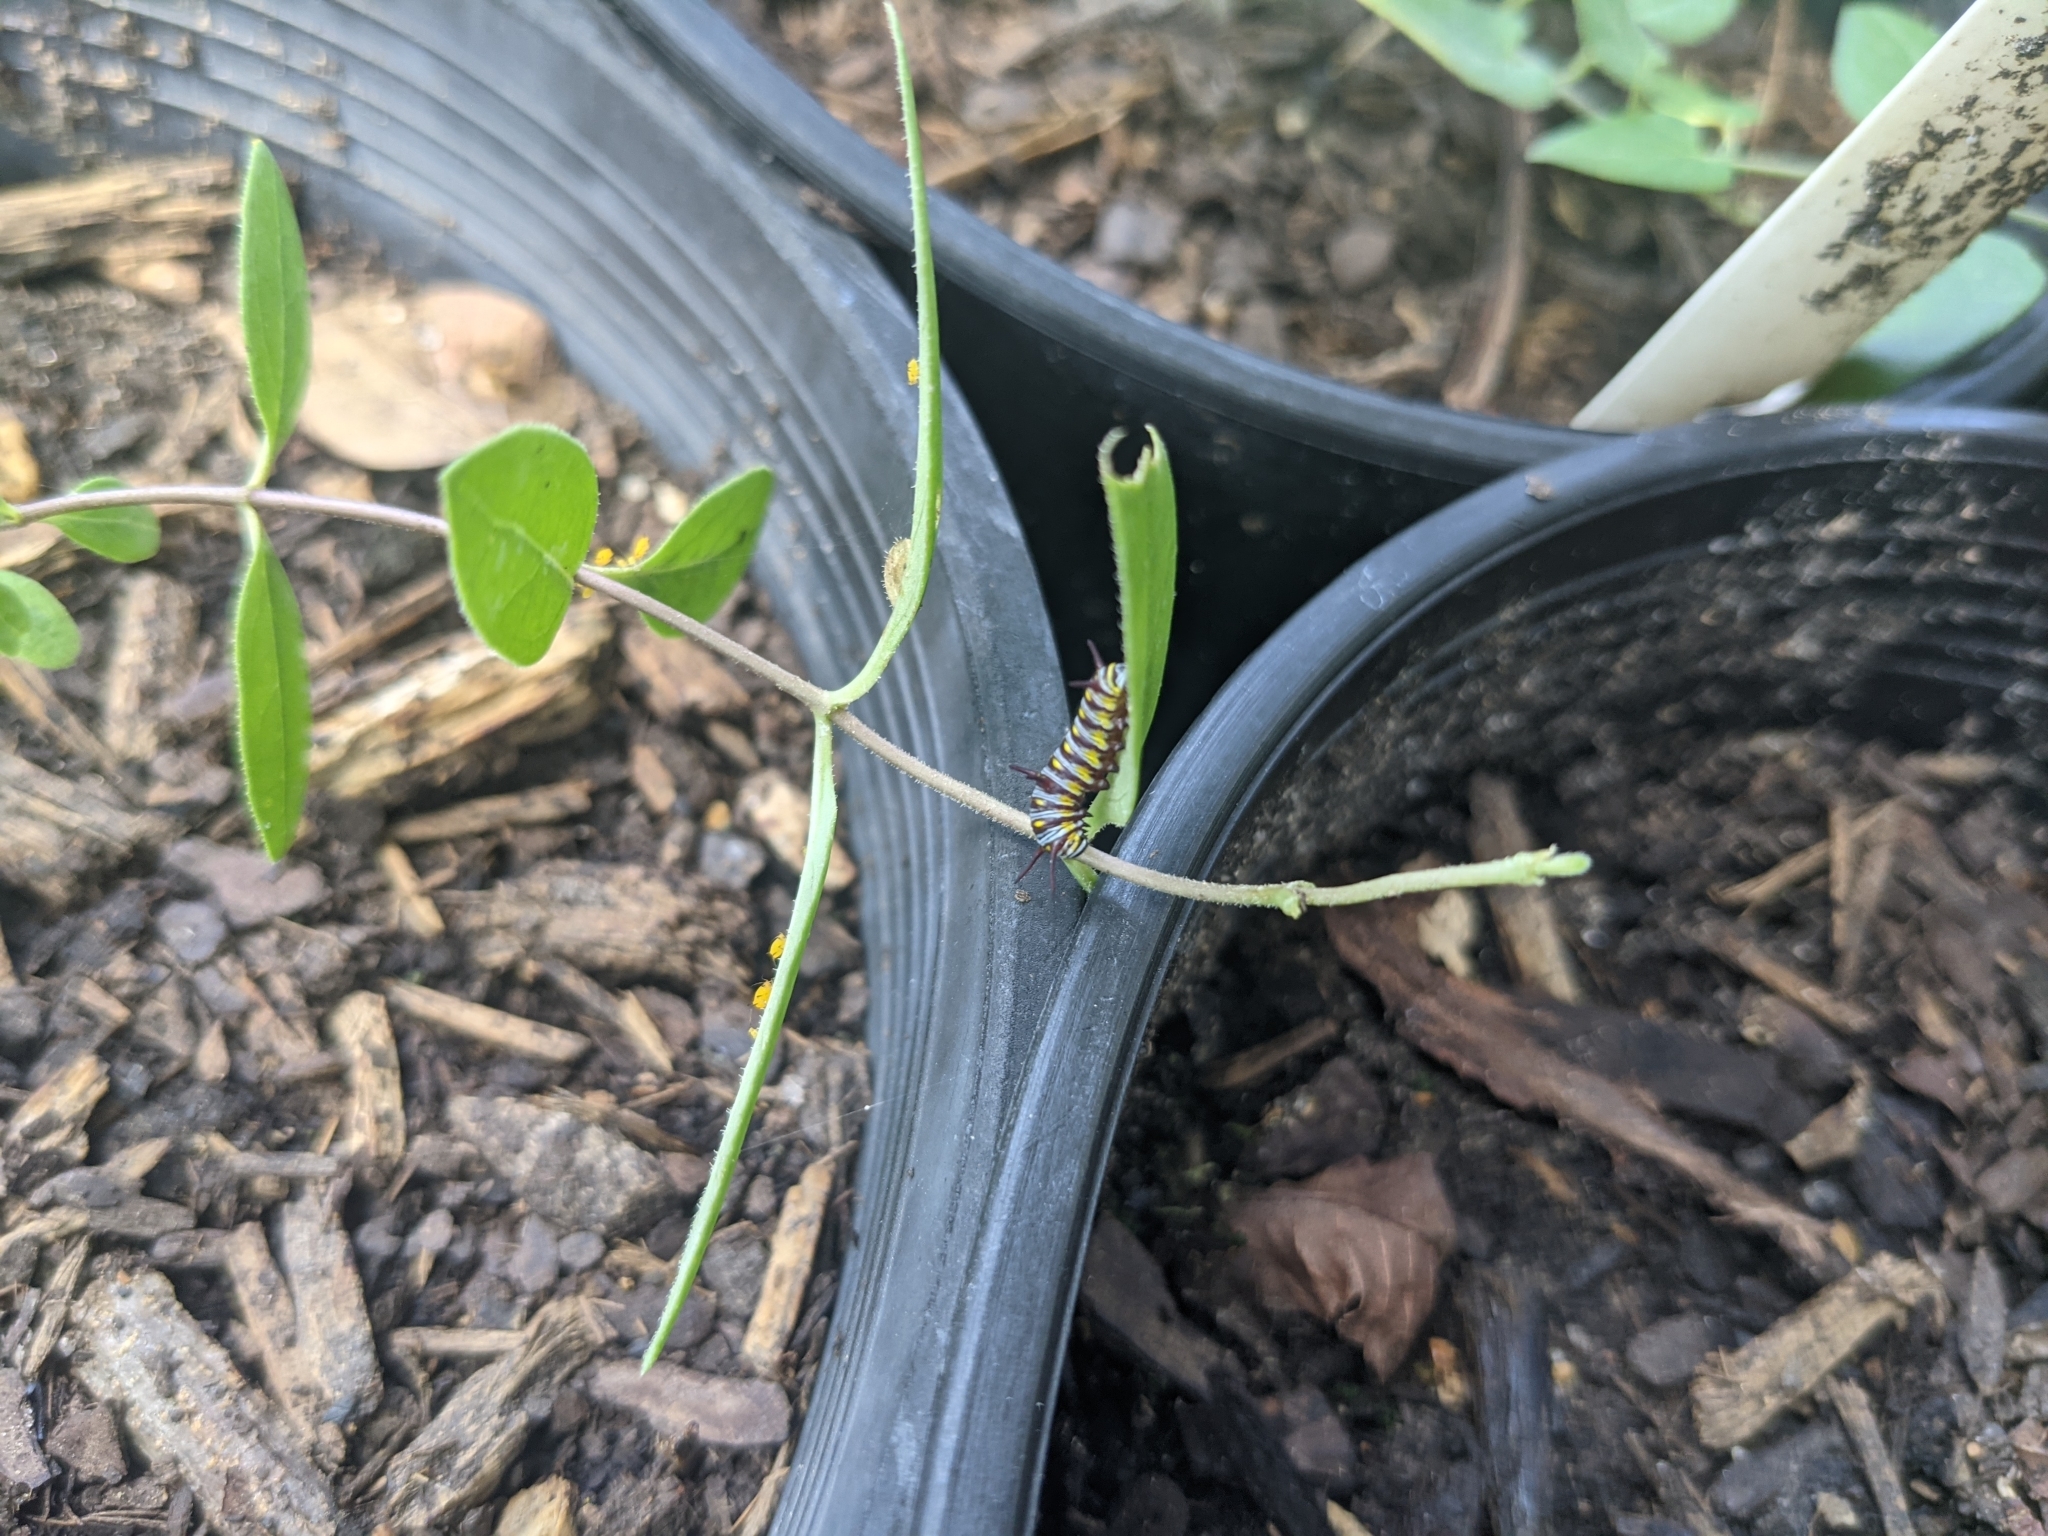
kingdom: Animalia
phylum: Arthropoda
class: Insecta
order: Lepidoptera
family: Nymphalidae
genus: Danaus
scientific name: Danaus gilippus
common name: Queen
